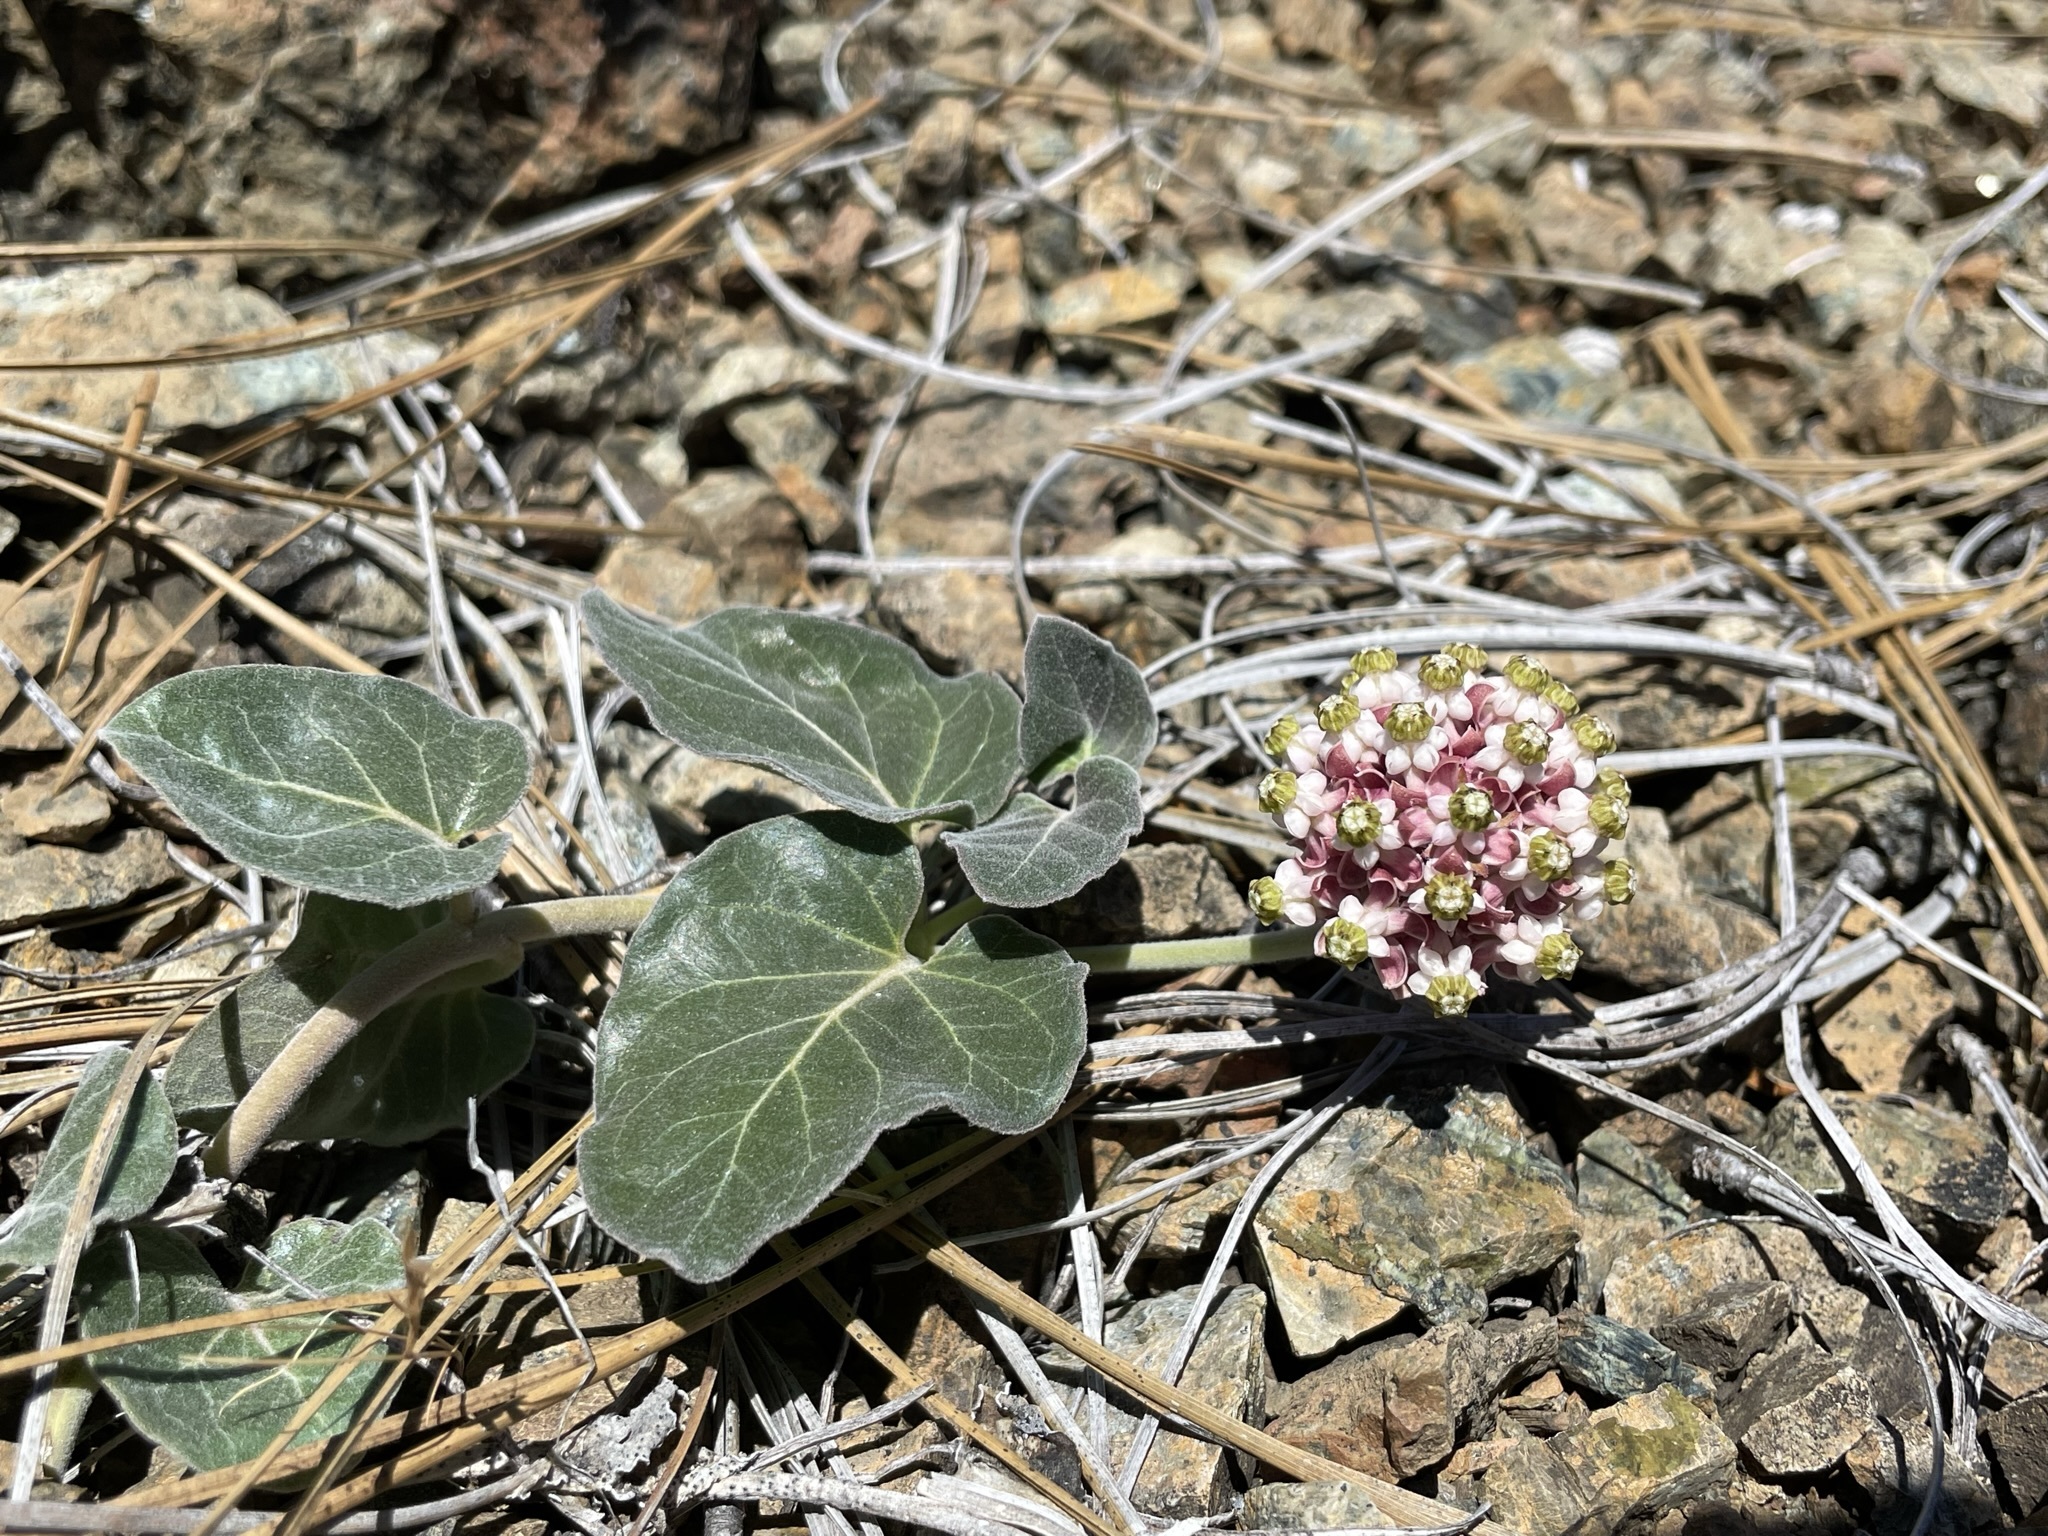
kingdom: Plantae
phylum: Tracheophyta
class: Magnoliopsida
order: Gentianales
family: Apocynaceae
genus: Asclepias
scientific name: Asclepias solanoana
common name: Serpentine milkweed
